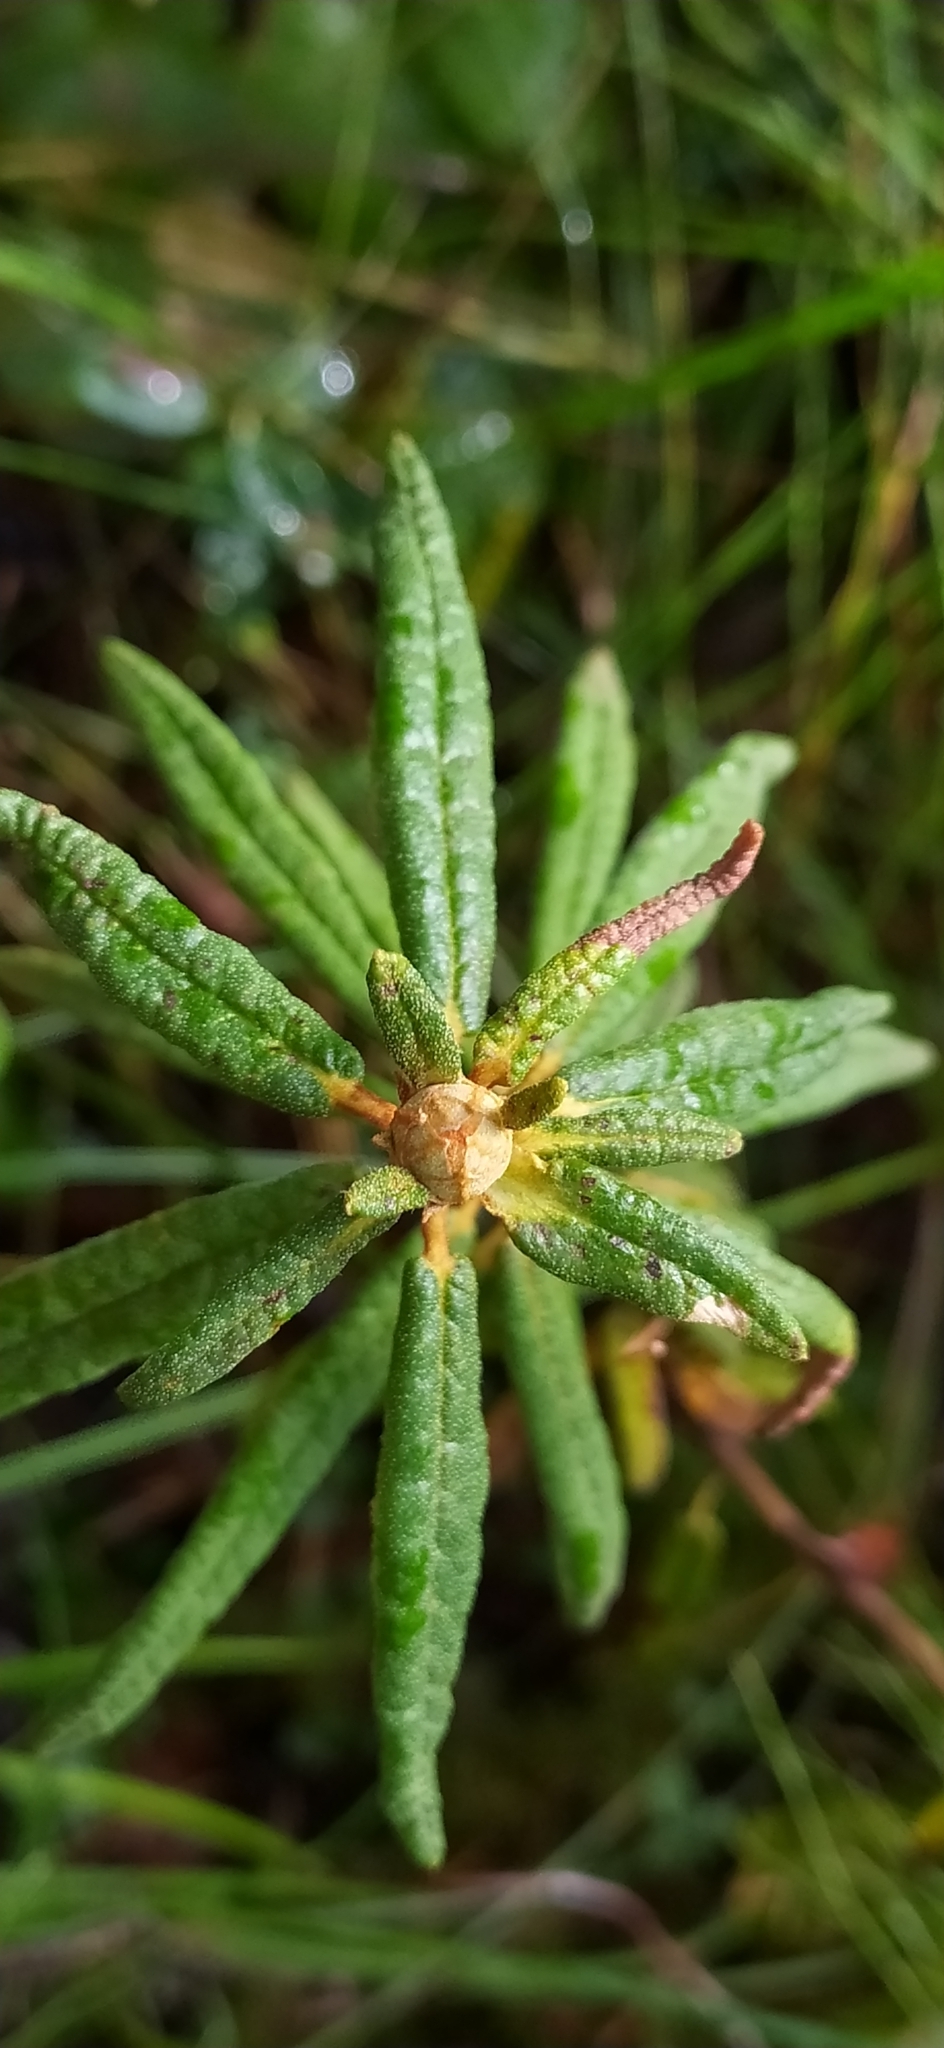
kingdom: Plantae
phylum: Tracheophyta
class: Magnoliopsida
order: Ericales
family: Ericaceae
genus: Rhododendron
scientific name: Rhododendron tomentosum
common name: Marsh labrador tea
